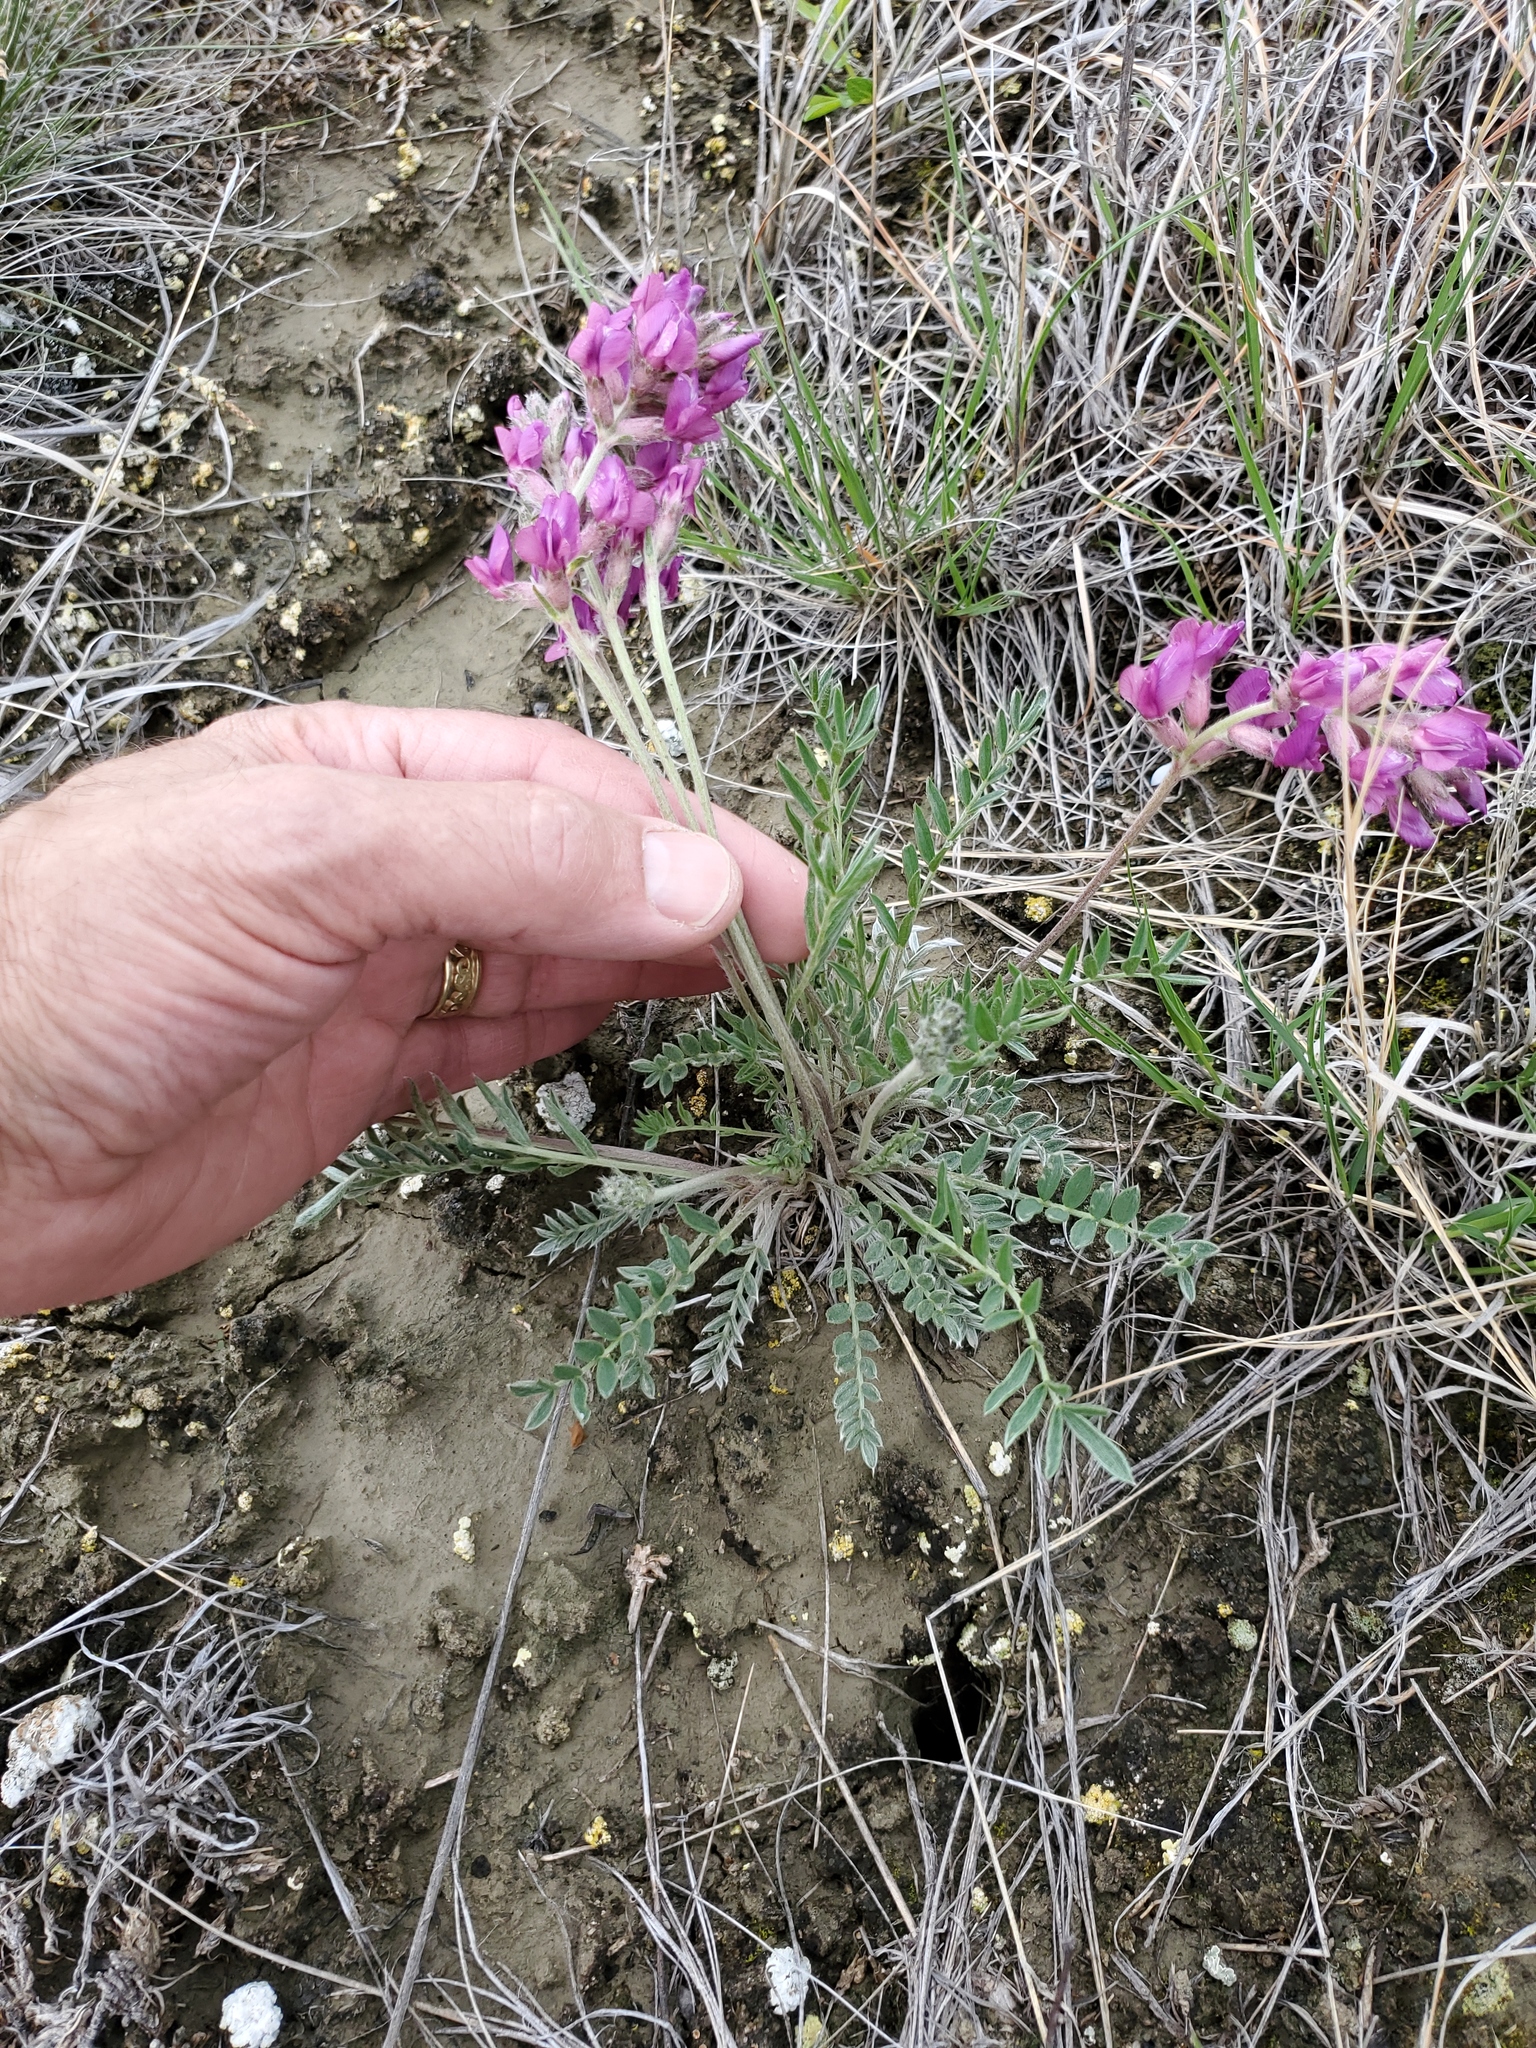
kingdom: Plantae
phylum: Tracheophyta
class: Magnoliopsida
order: Fabales
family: Fabaceae
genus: Oxytropis
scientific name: Oxytropis lambertii
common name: Purple locoweed
